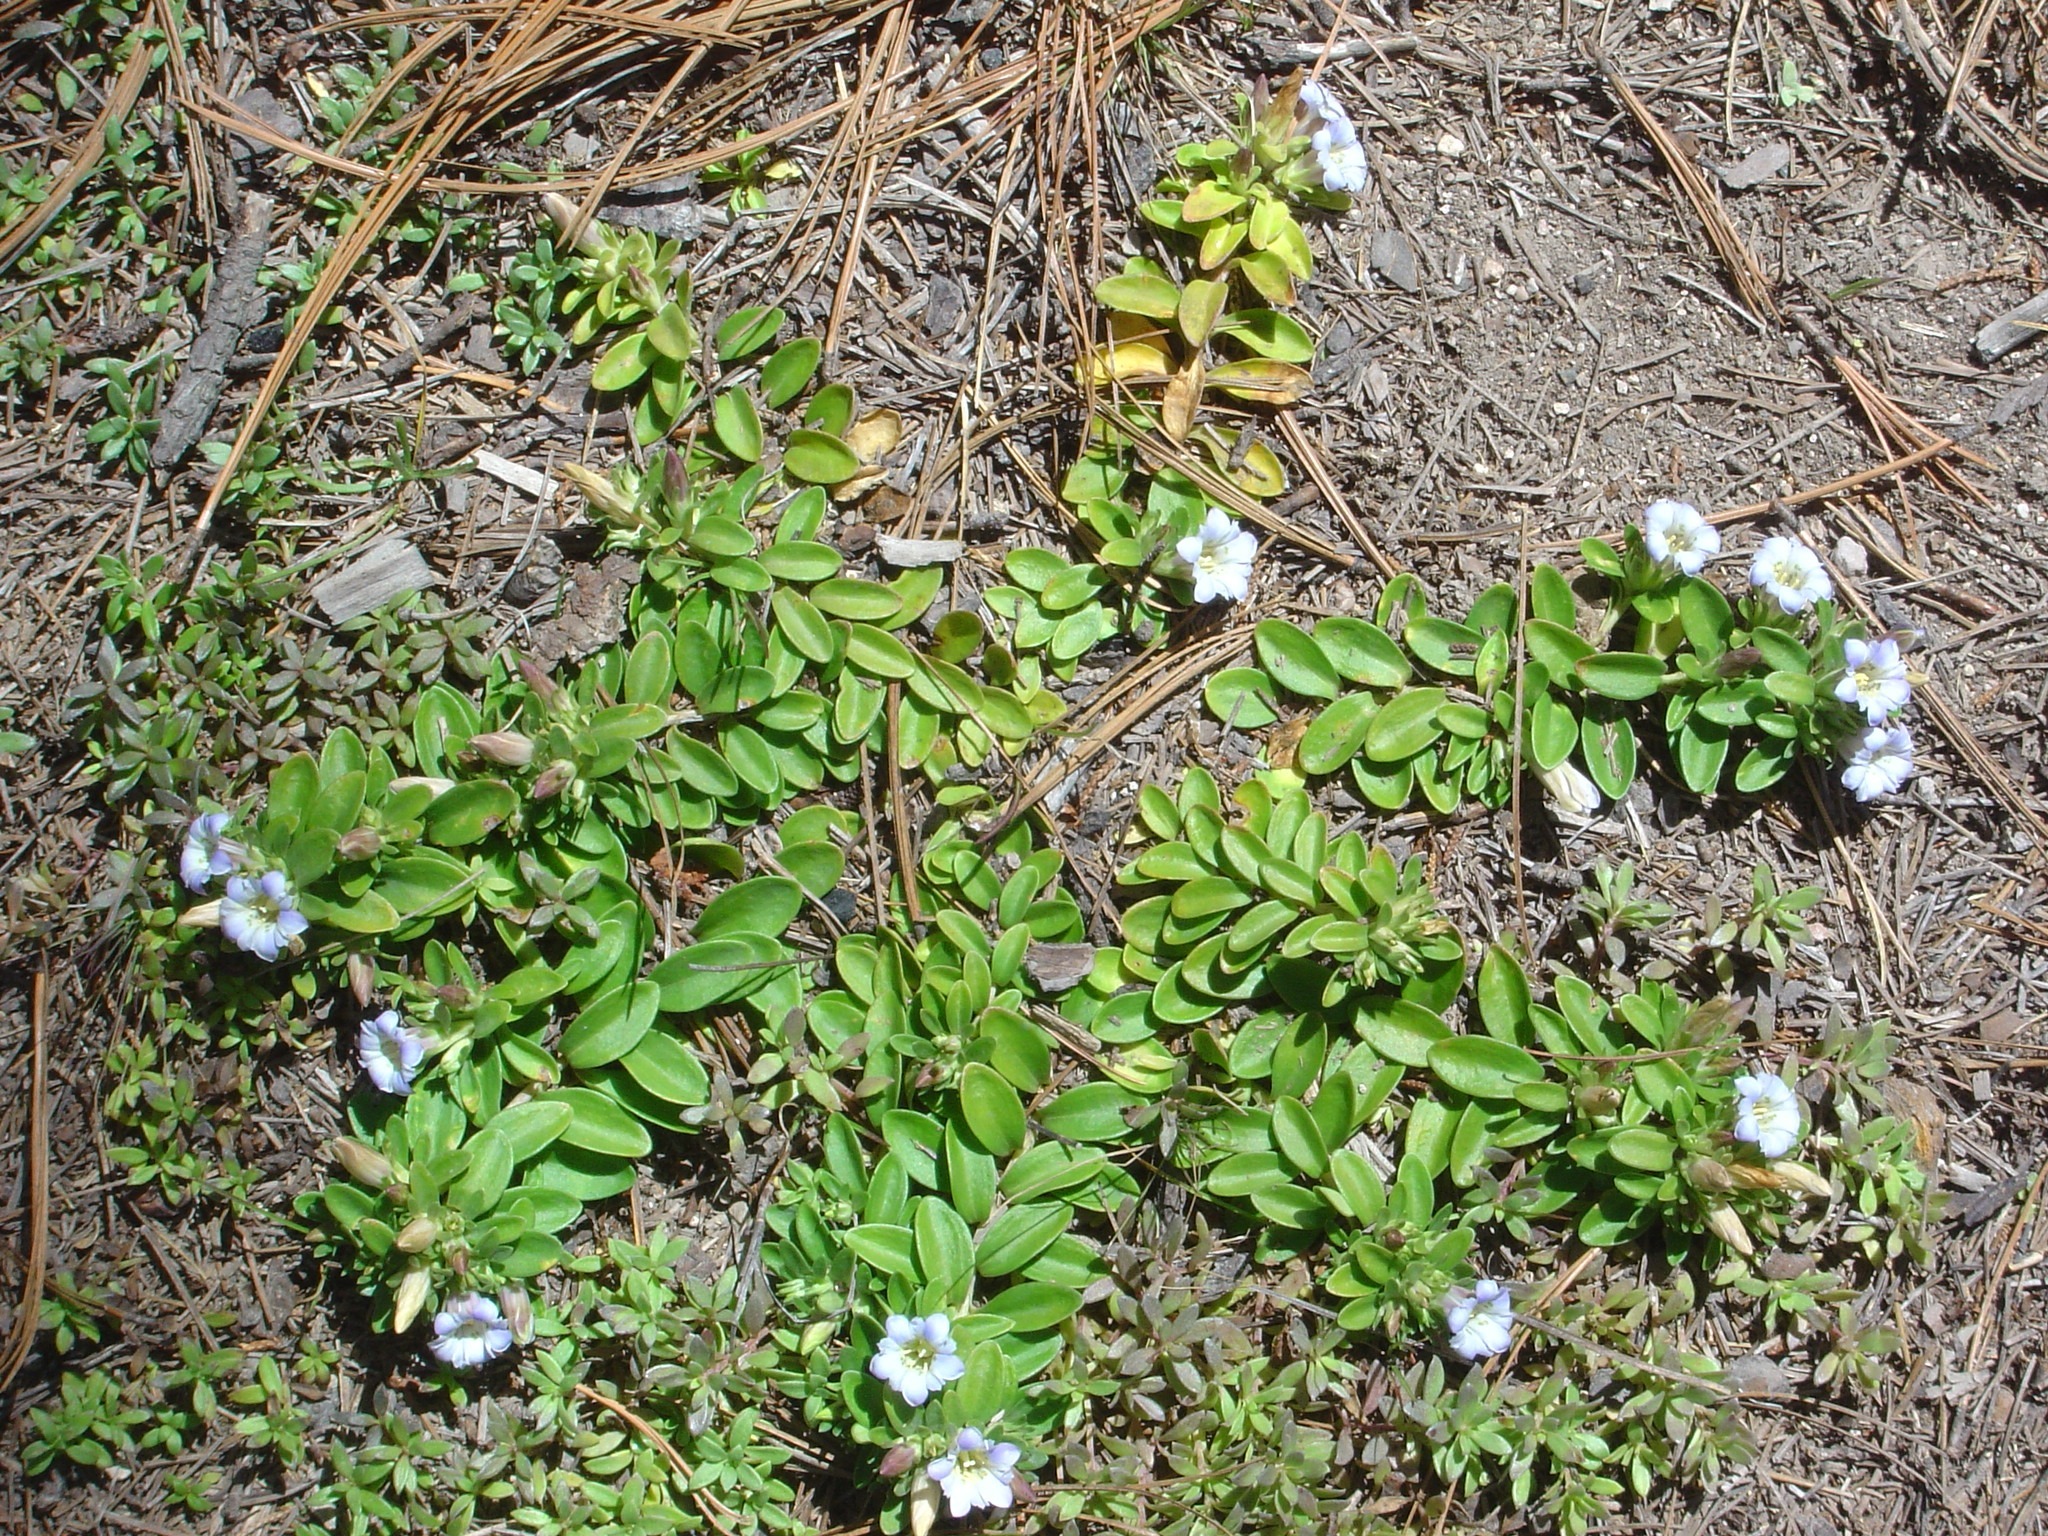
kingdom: Plantae
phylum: Tracheophyta
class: Magnoliopsida
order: Gentianales
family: Gentianaceae
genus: Gentiana
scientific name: Gentiana ovatiloba
